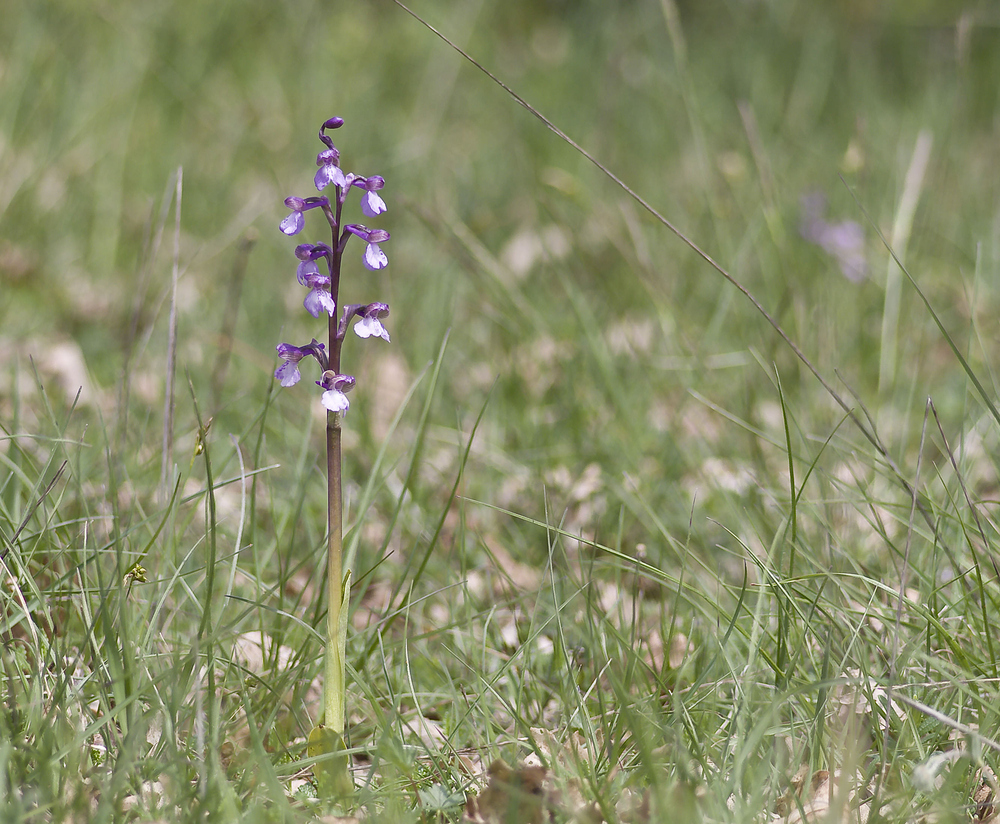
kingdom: Plantae
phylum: Tracheophyta
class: Liliopsida
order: Asparagales
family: Orchidaceae
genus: Anacamptis
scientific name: Anacamptis morio
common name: Green-winged orchid
